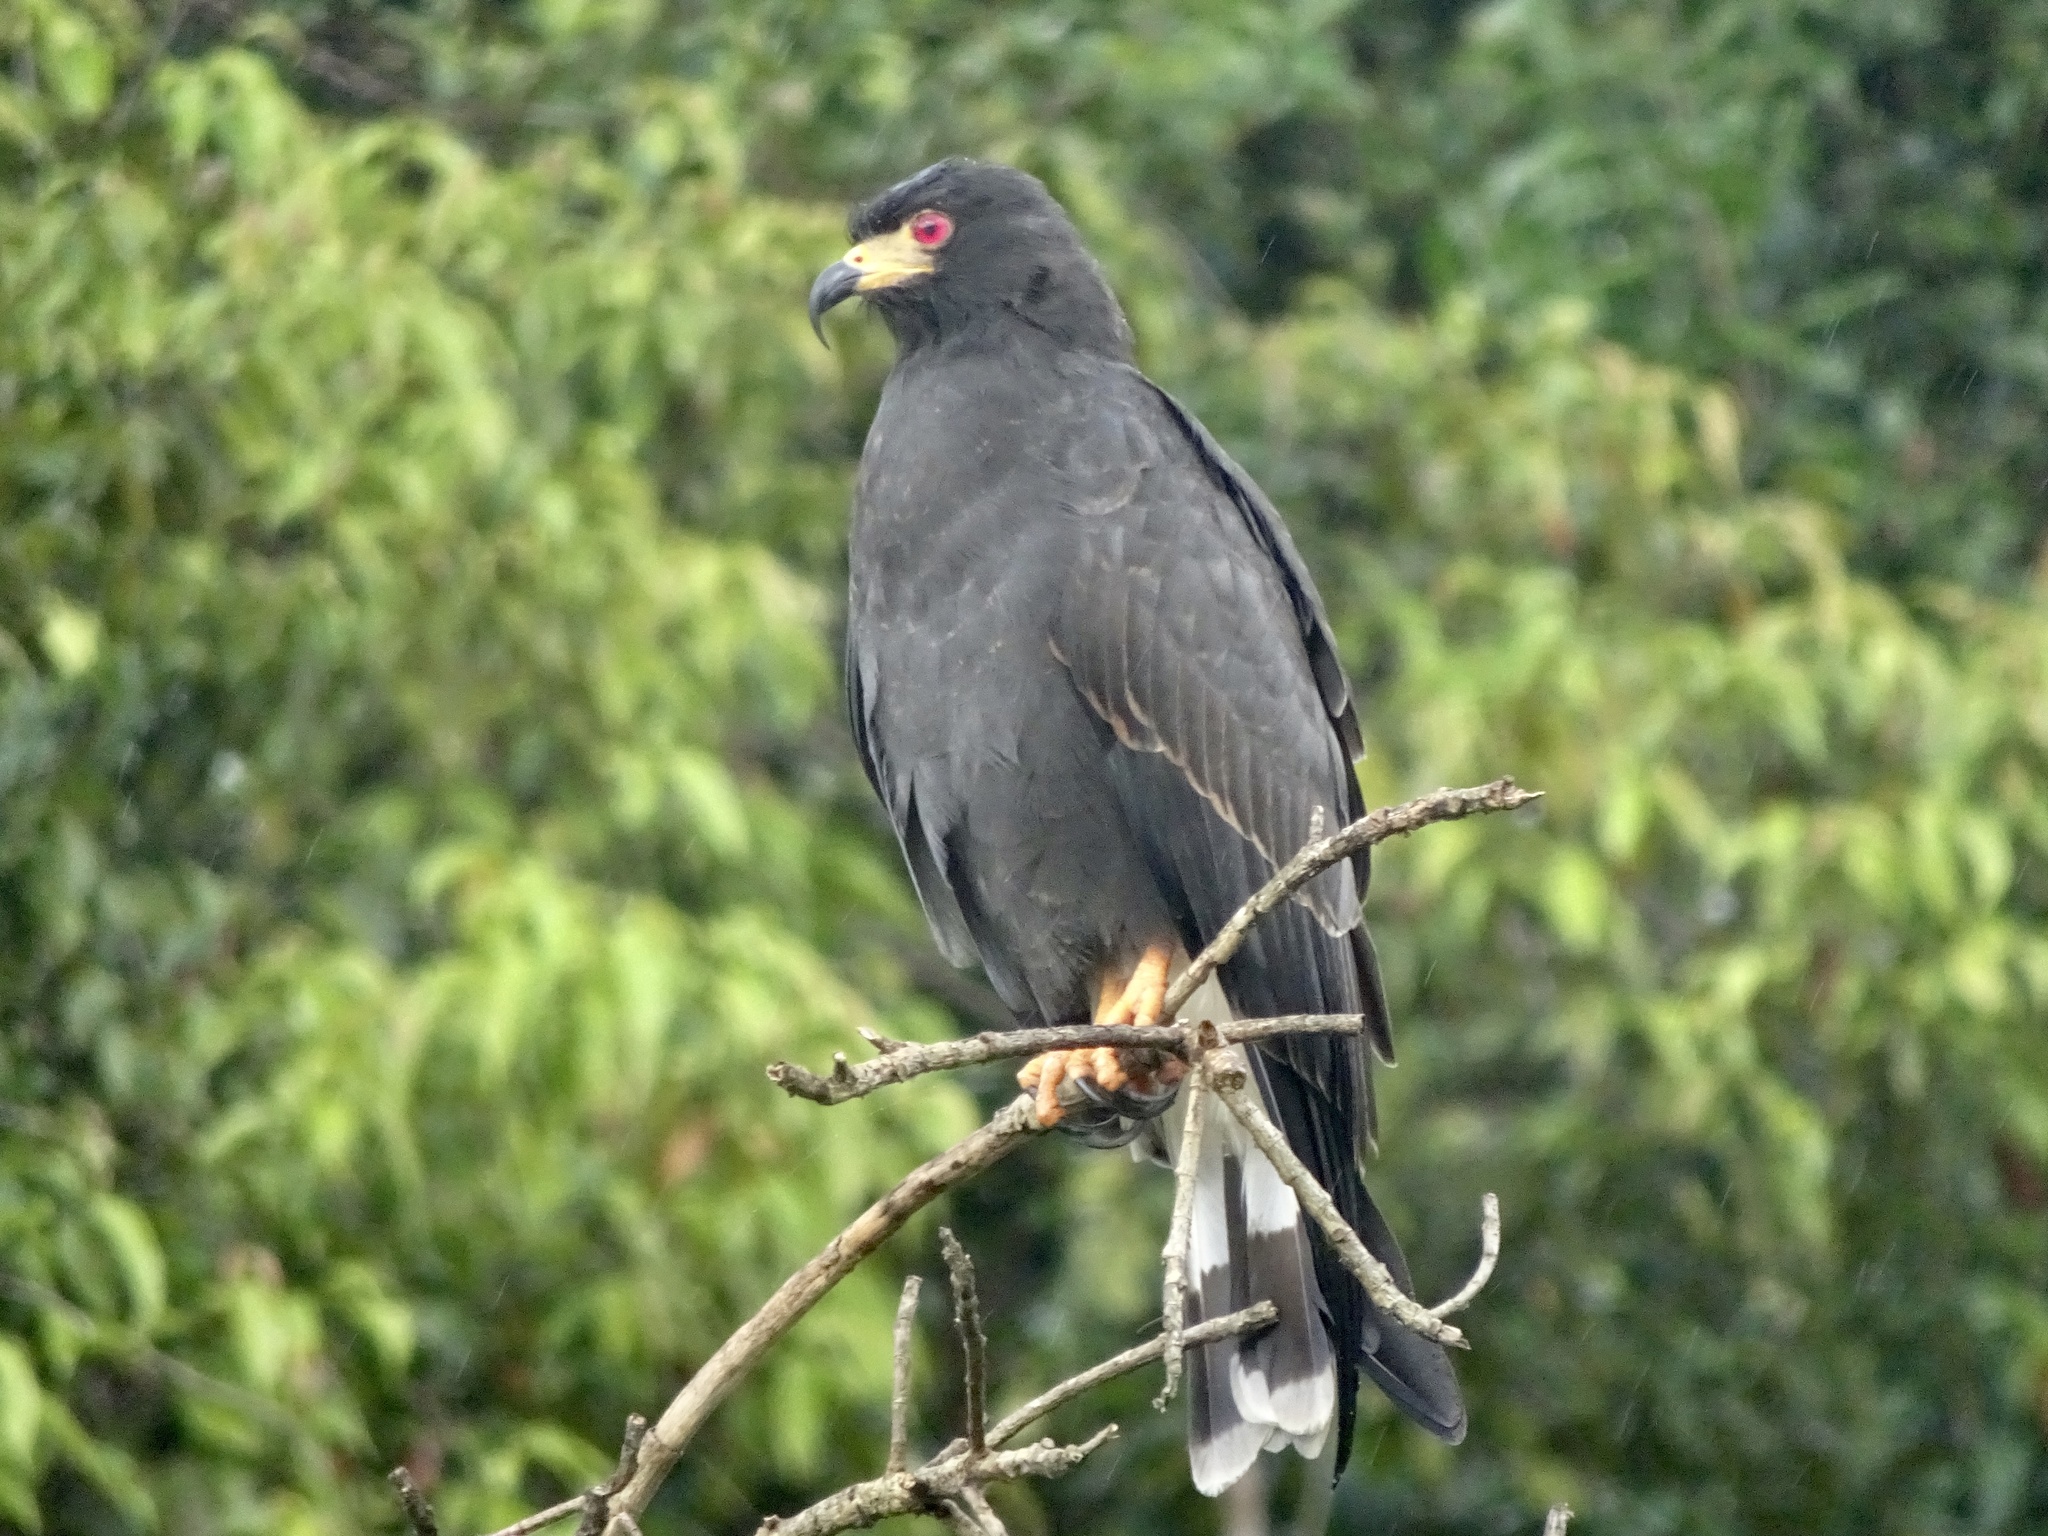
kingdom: Animalia
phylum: Chordata
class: Aves
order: Accipitriformes
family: Accipitridae
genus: Rostrhamus
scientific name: Rostrhamus sociabilis
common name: Snail kite
